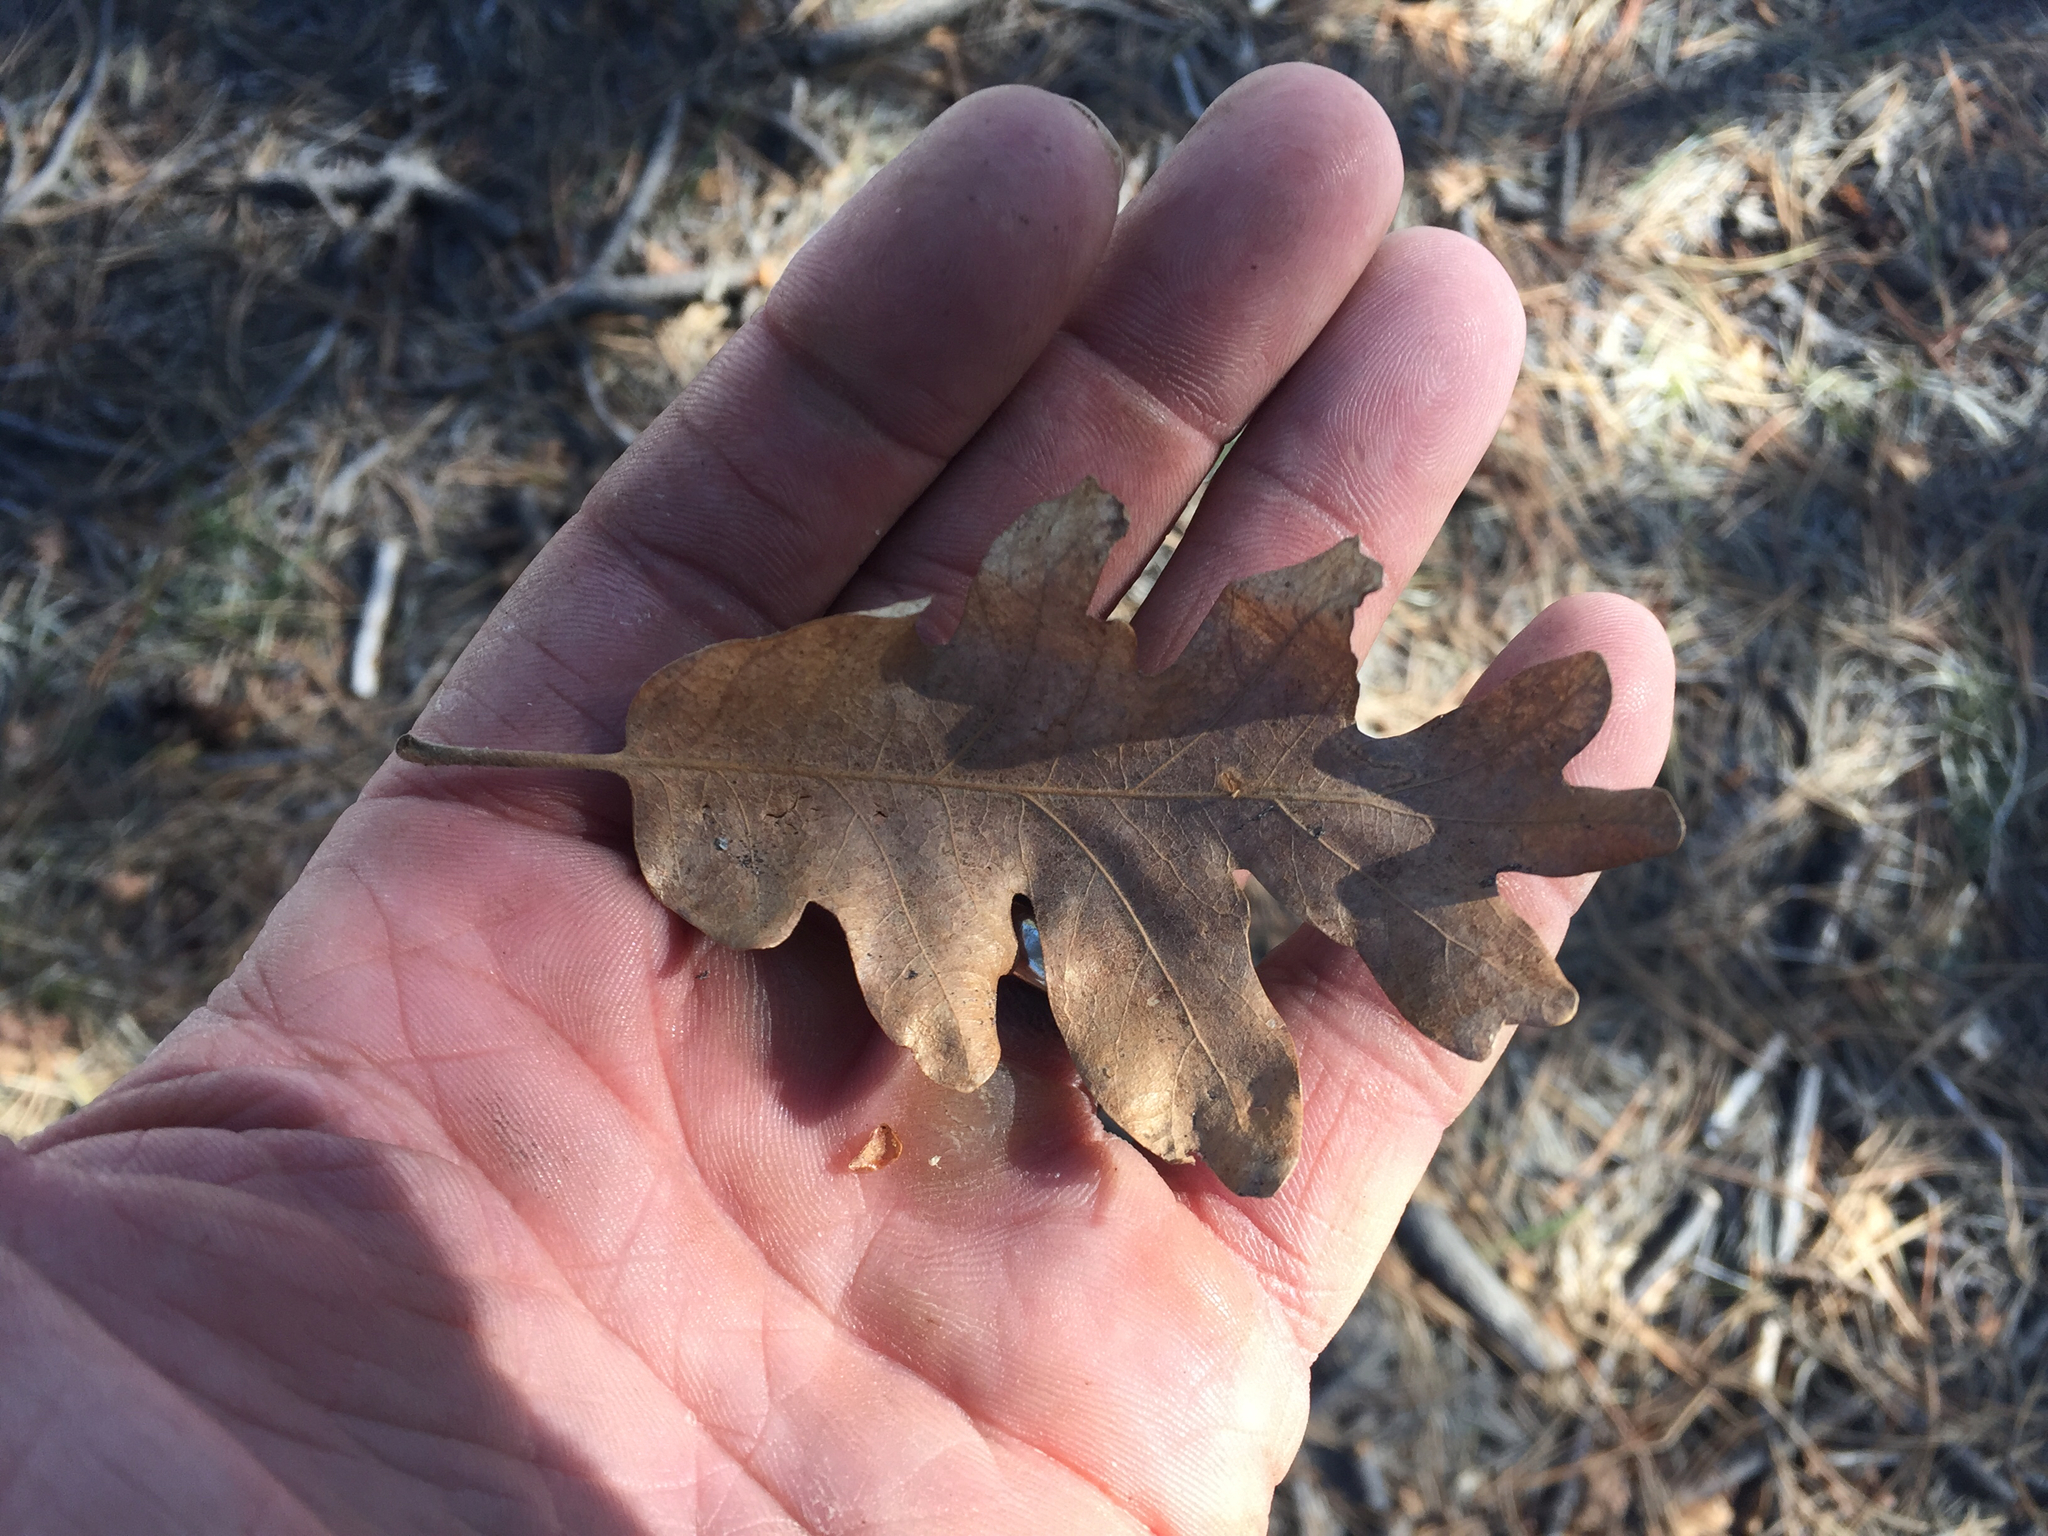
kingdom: Plantae
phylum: Tracheophyta
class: Magnoliopsida
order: Fagales
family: Fagaceae
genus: Quercus
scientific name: Quercus gambelii
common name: Gambel oak
